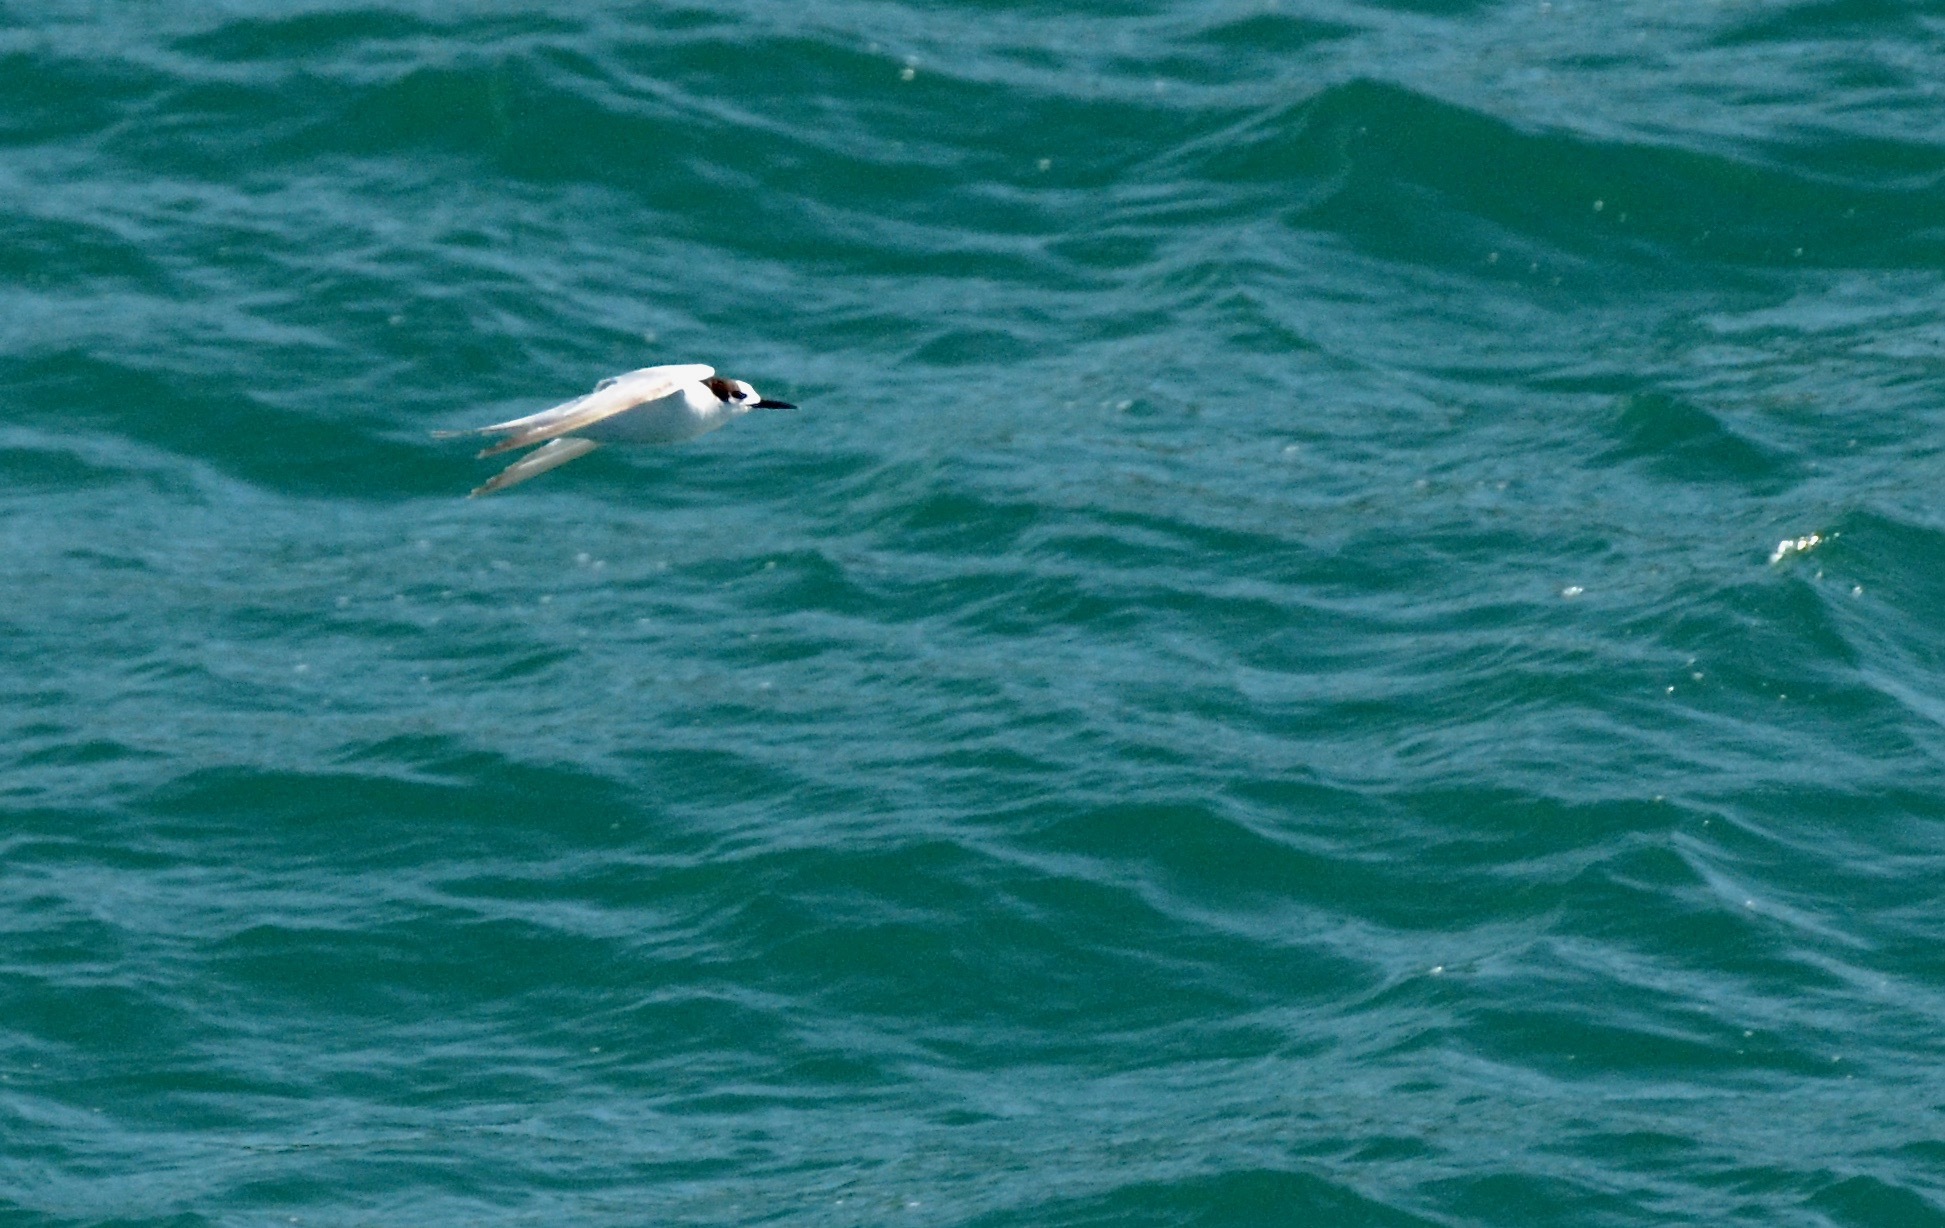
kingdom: Animalia
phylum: Chordata
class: Aves
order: Charadriiformes
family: Laridae
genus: Sterna
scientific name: Sterna striata
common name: White-fronted tern
